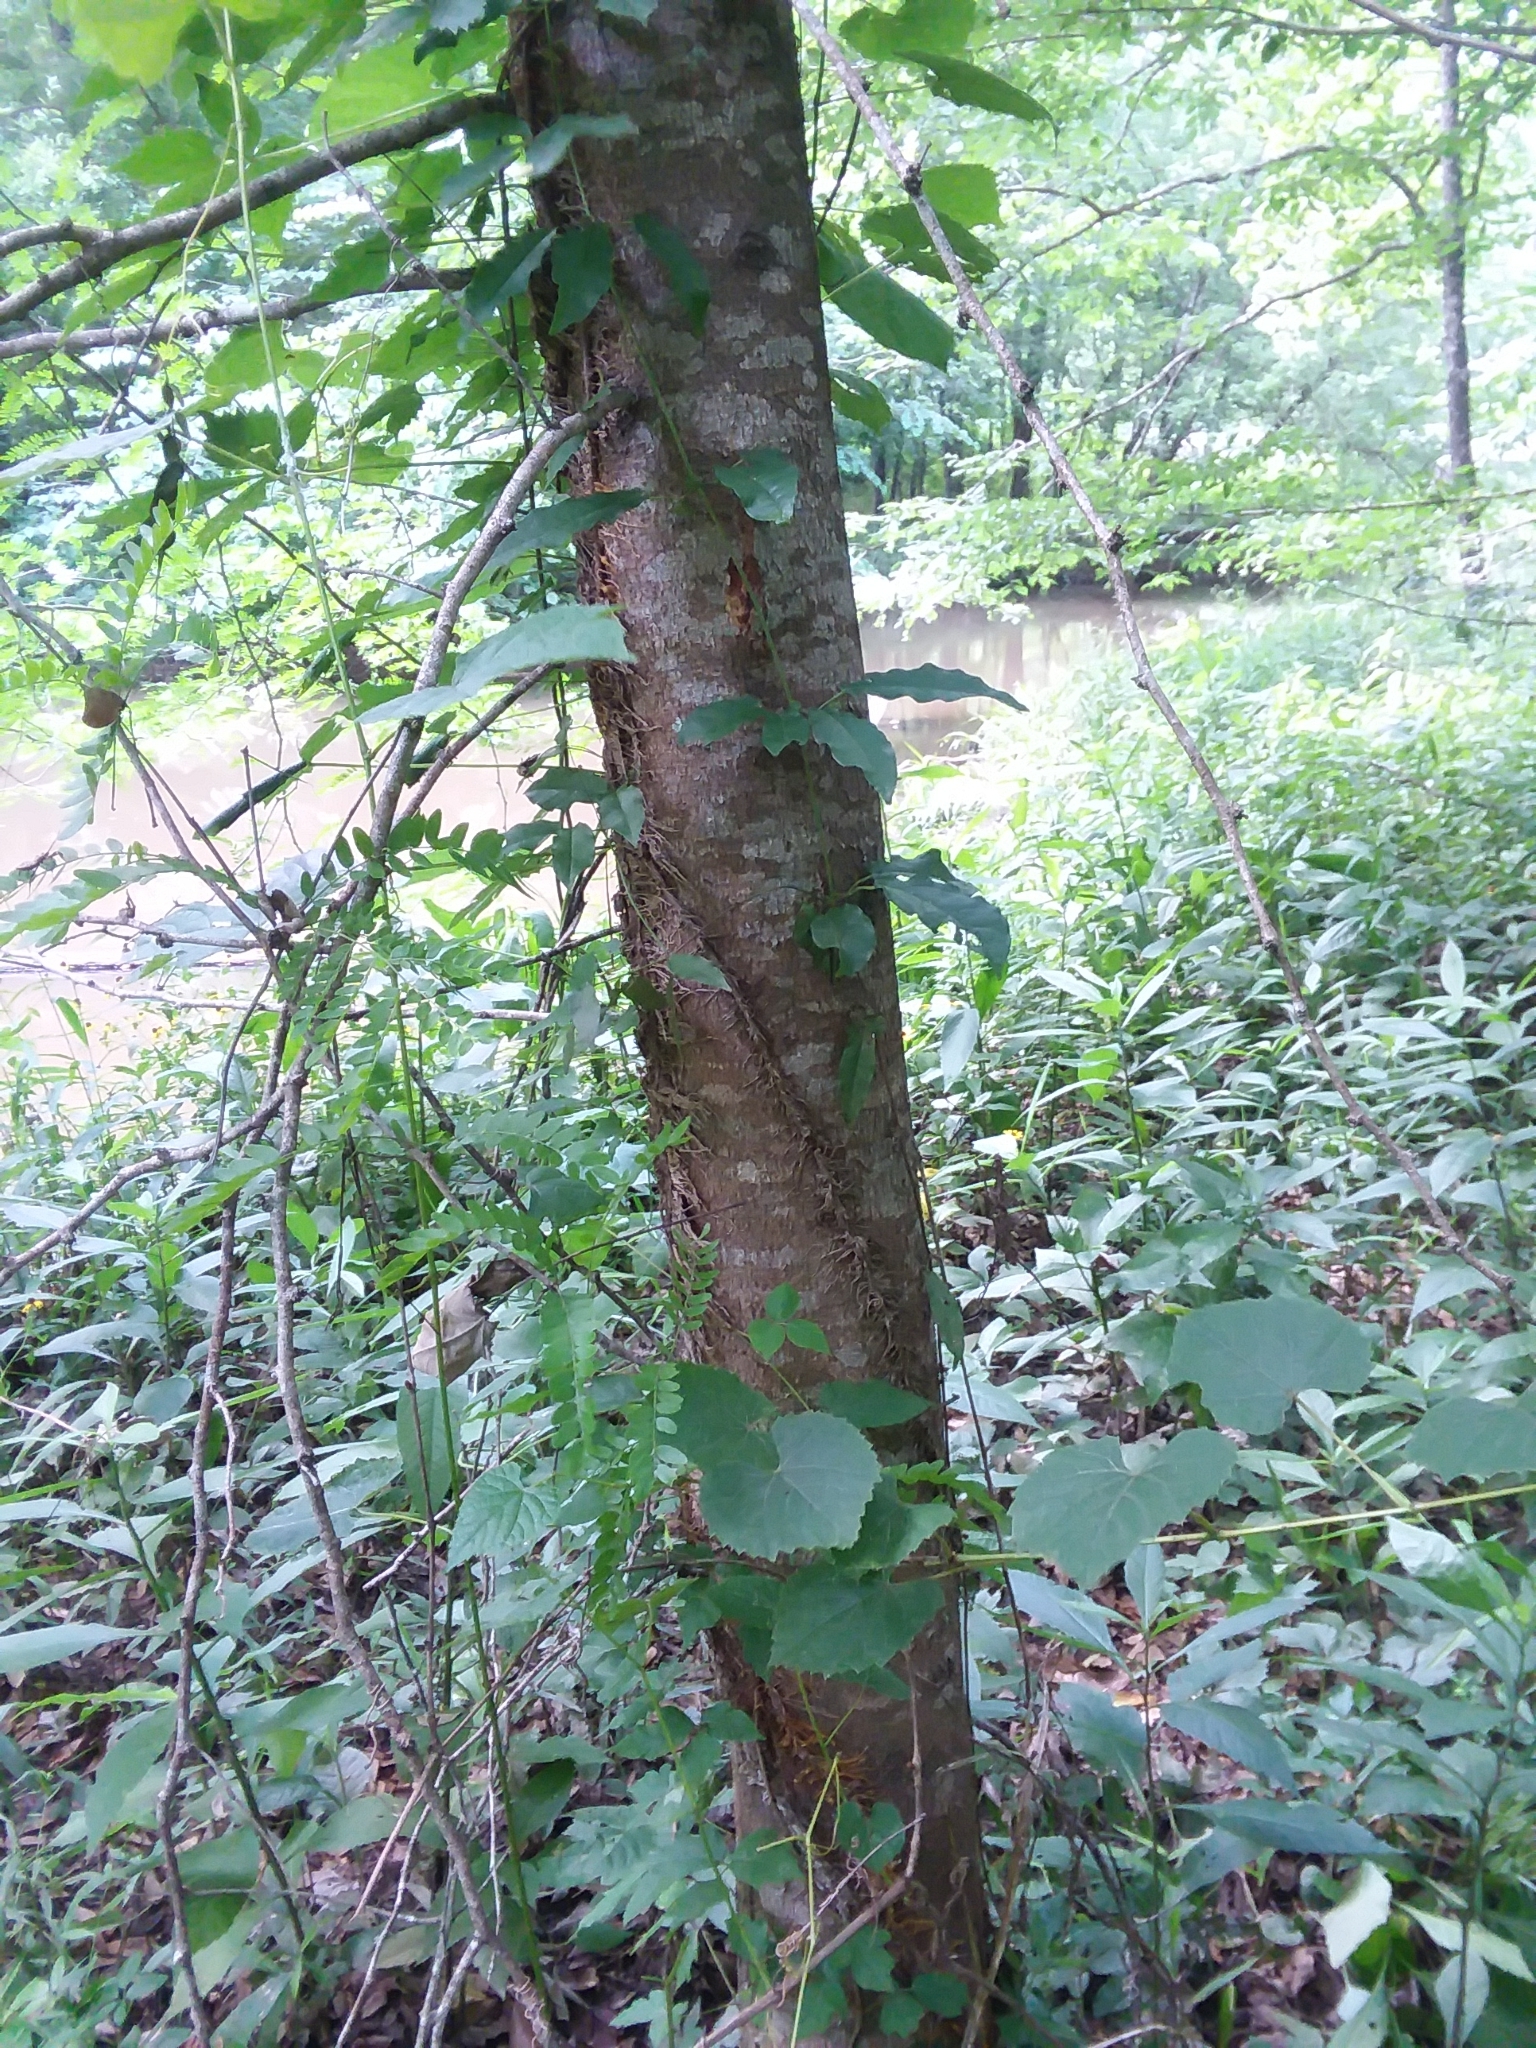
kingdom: Plantae
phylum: Tracheophyta
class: Magnoliopsida
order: Fabales
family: Fabaceae
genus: Gleditsia
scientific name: Gleditsia triacanthos
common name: Common honeylocust
